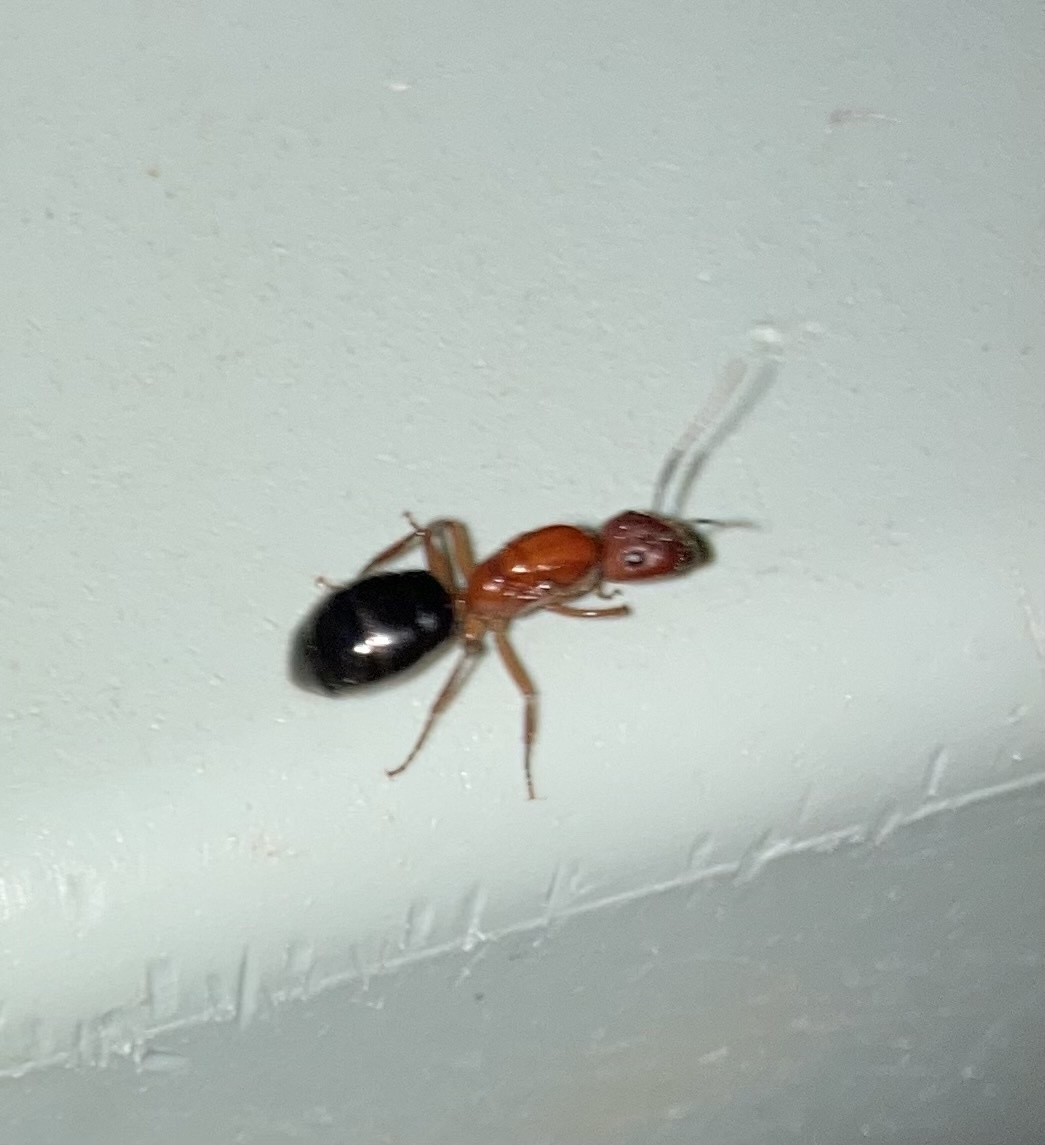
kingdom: Animalia
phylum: Arthropoda
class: Insecta
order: Hymenoptera
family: Formicidae
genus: Camponotus
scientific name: Camponotus floridanus
